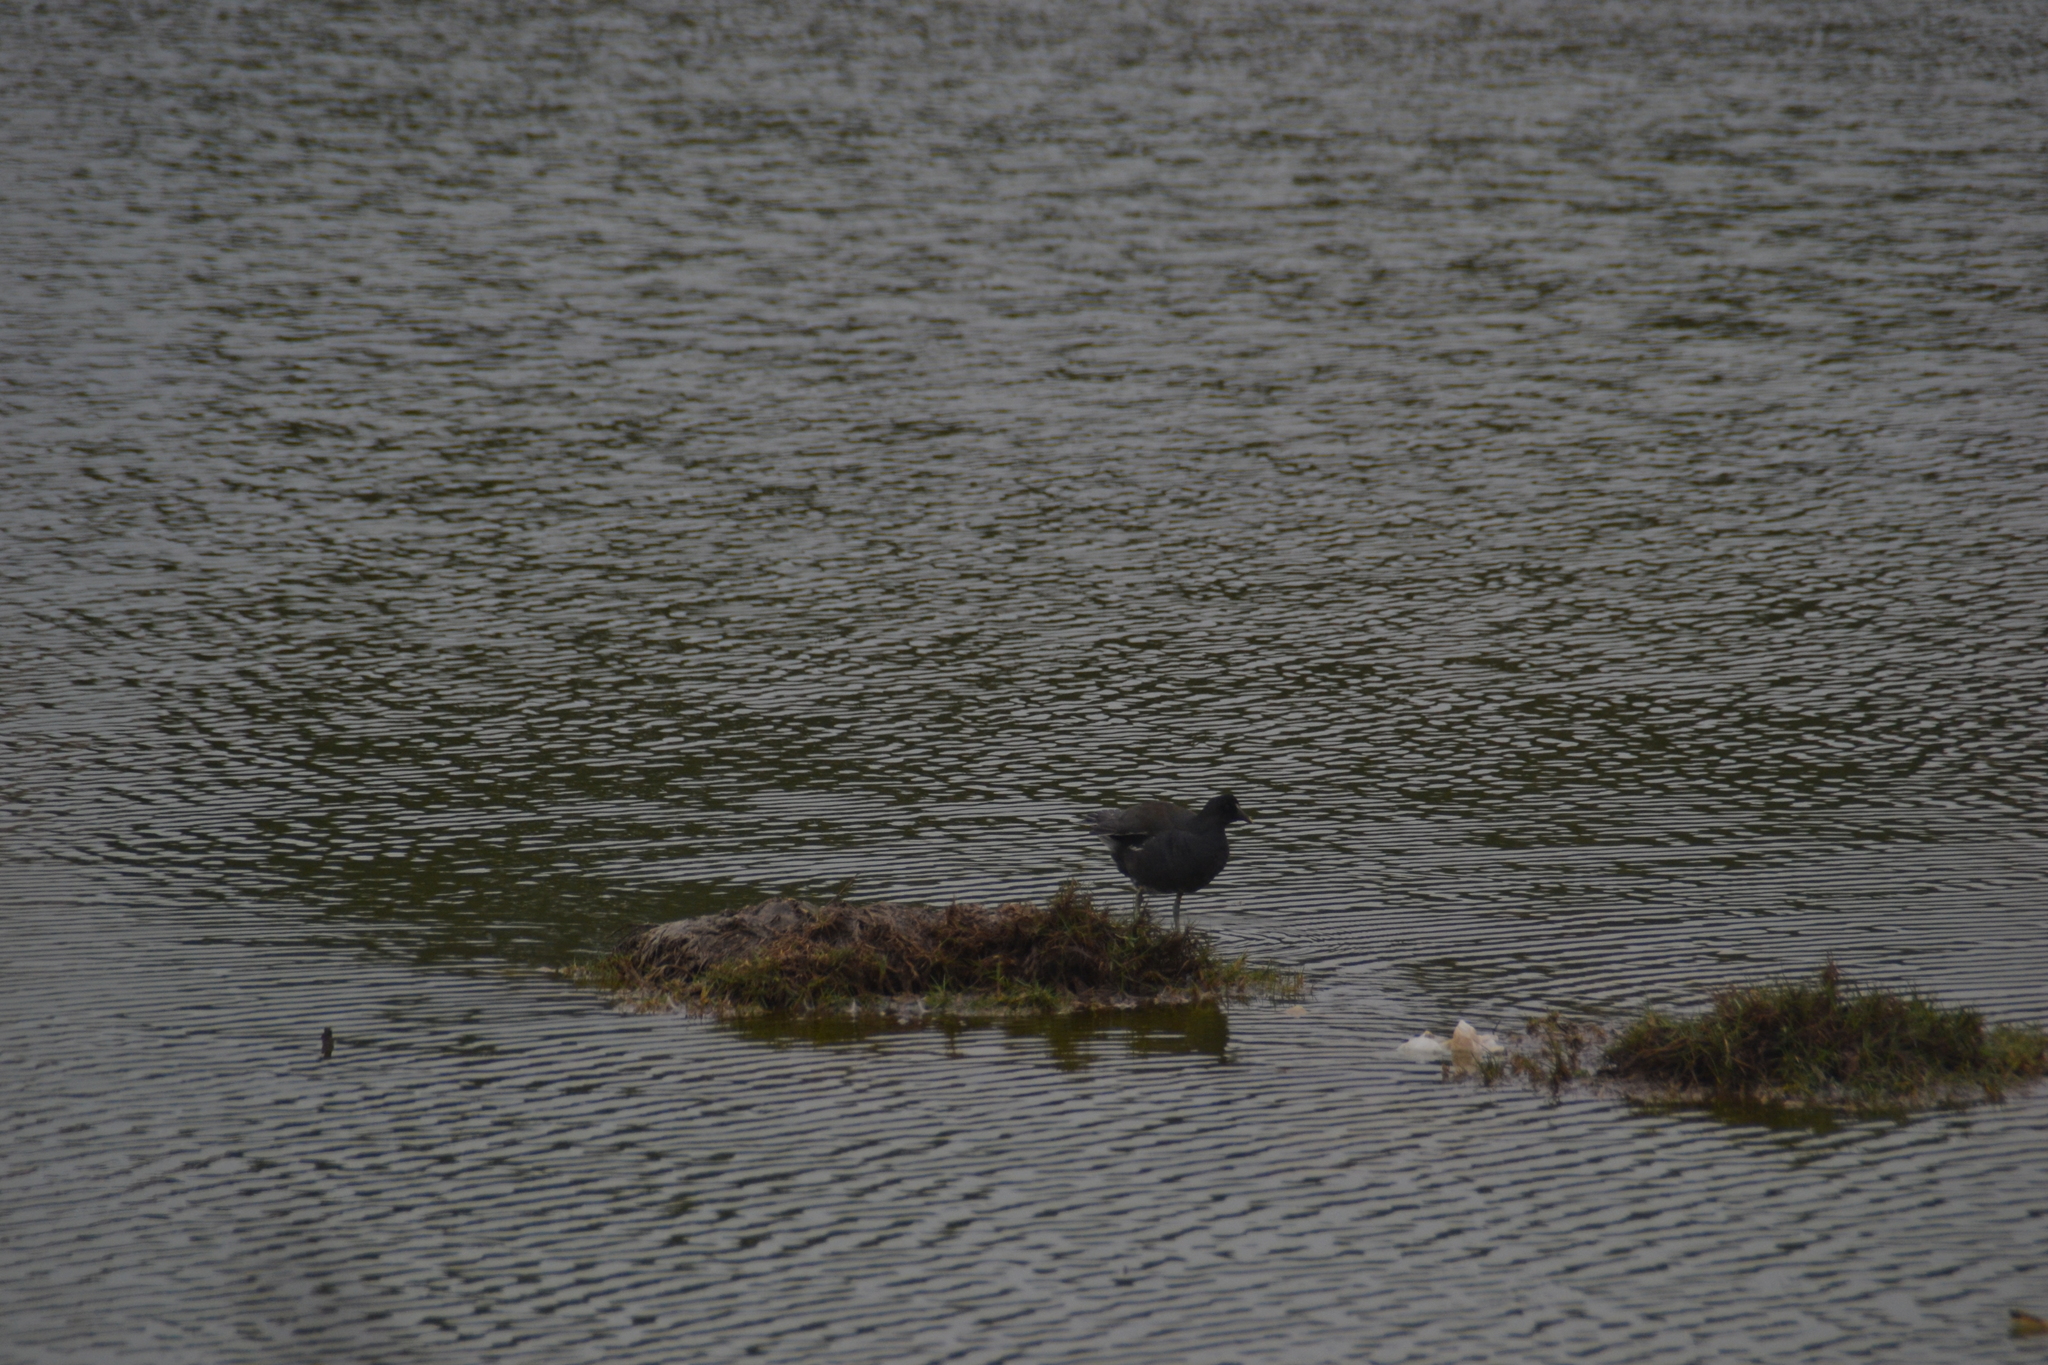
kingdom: Animalia
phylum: Chordata
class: Aves
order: Gruiformes
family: Rallidae
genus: Gallinula
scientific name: Gallinula chloropus
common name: Common moorhen
